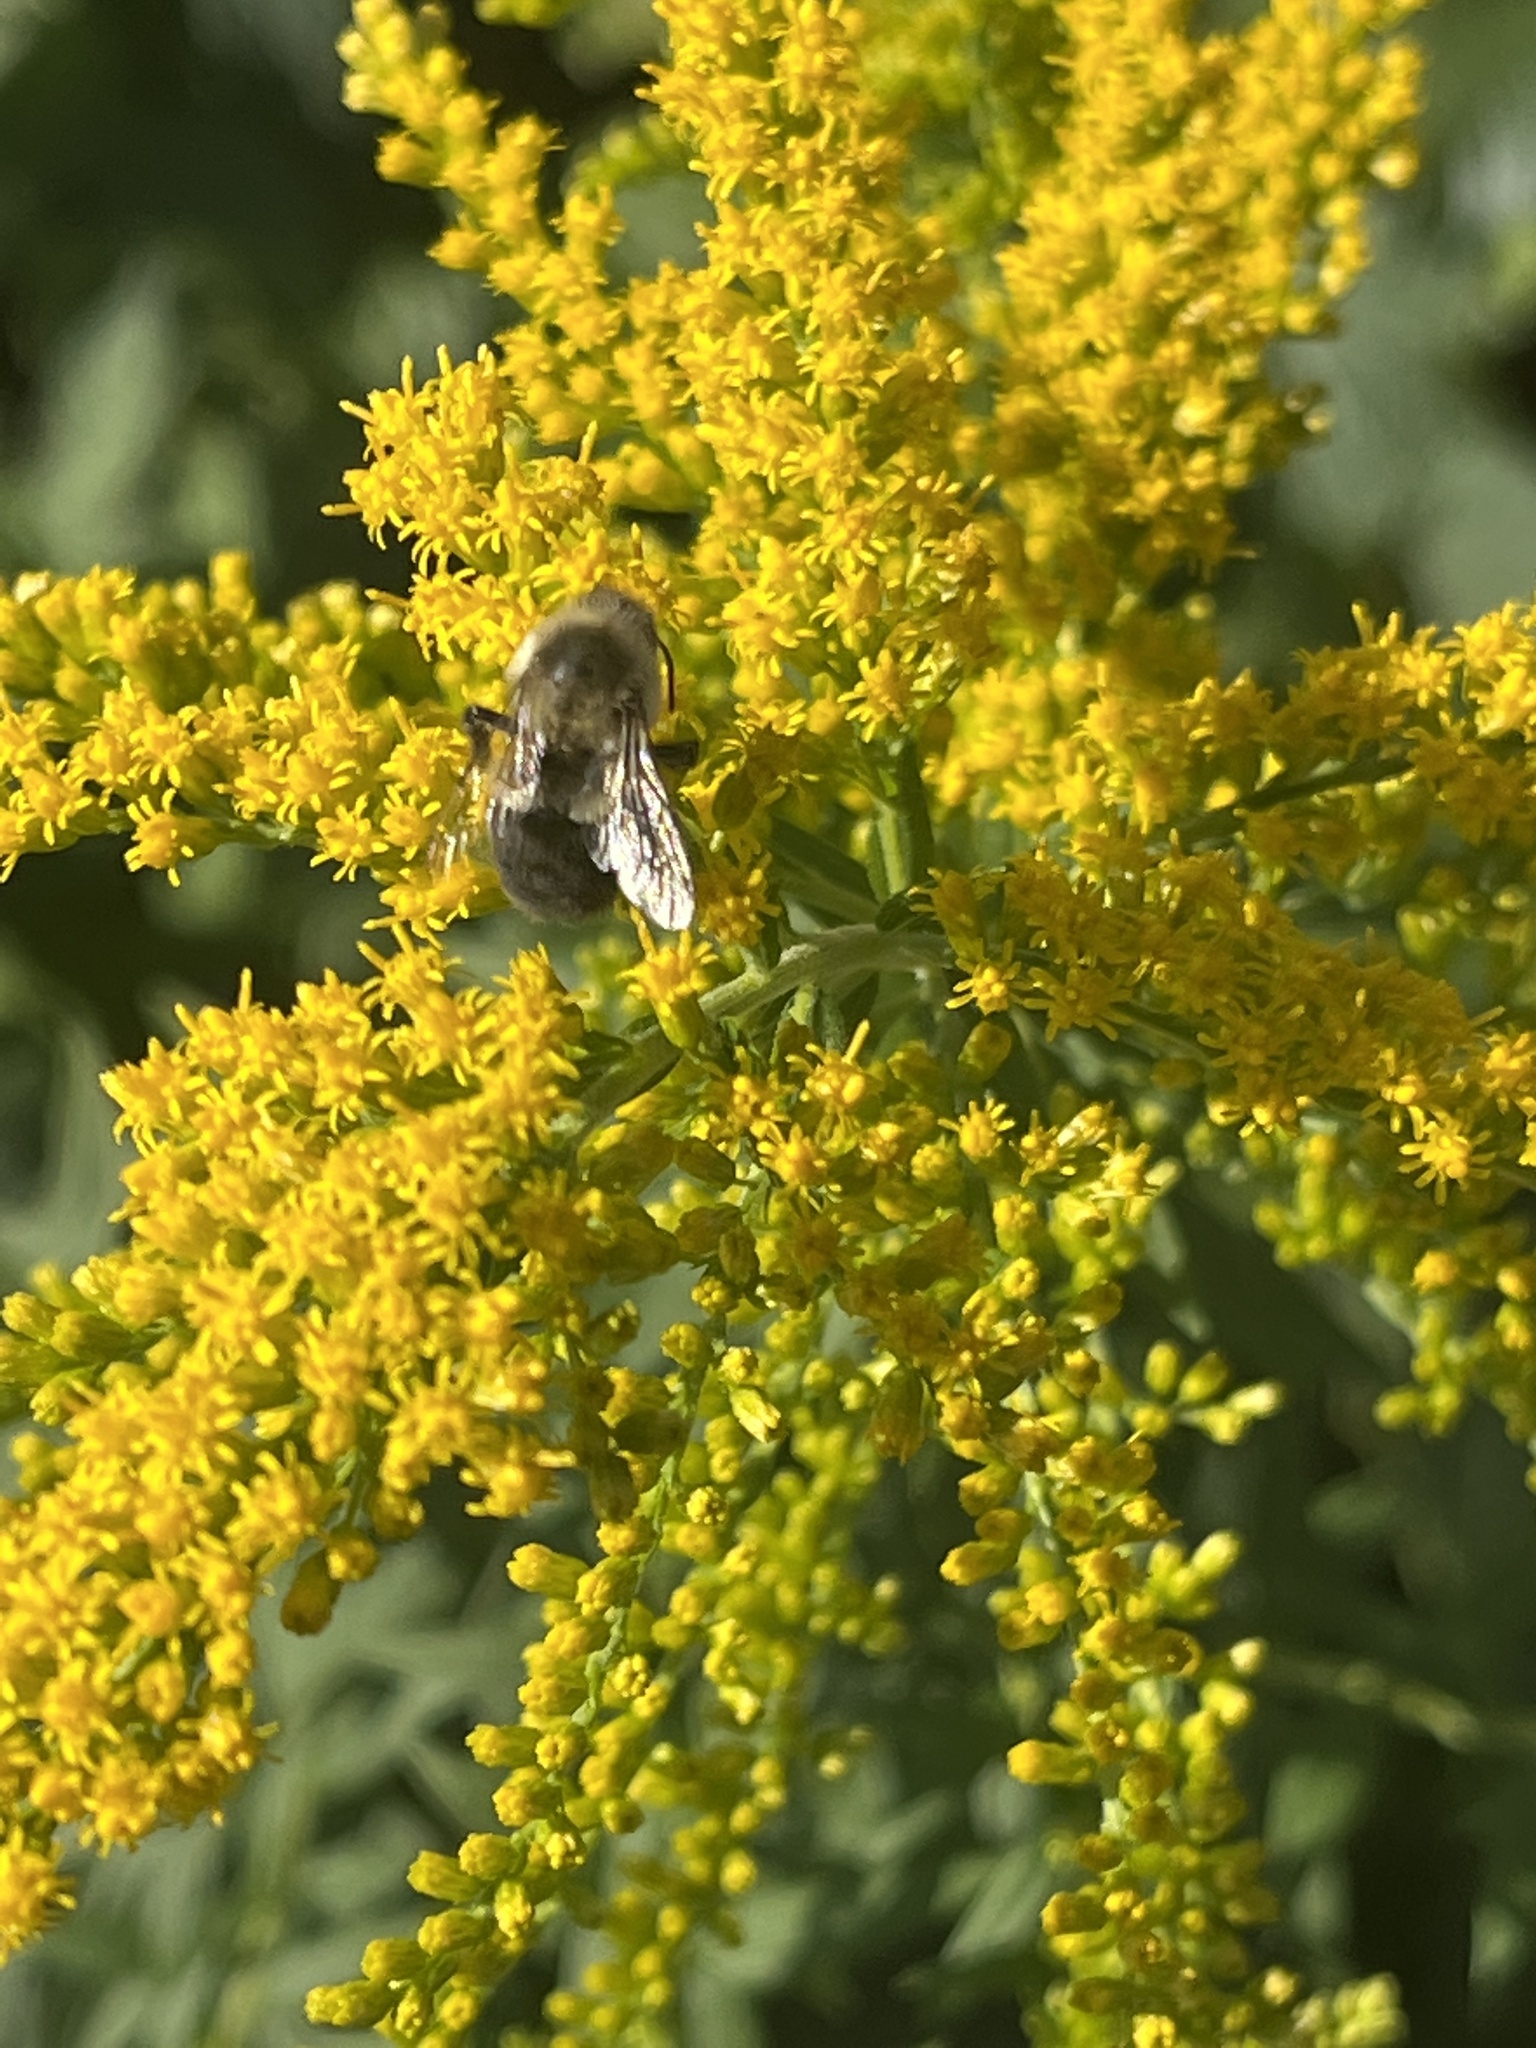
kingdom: Animalia
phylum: Arthropoda
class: Insecta
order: Hymenoptera
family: Apidae
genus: Bombus
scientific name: Bombus impatiens
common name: Common eastern bumble bee
